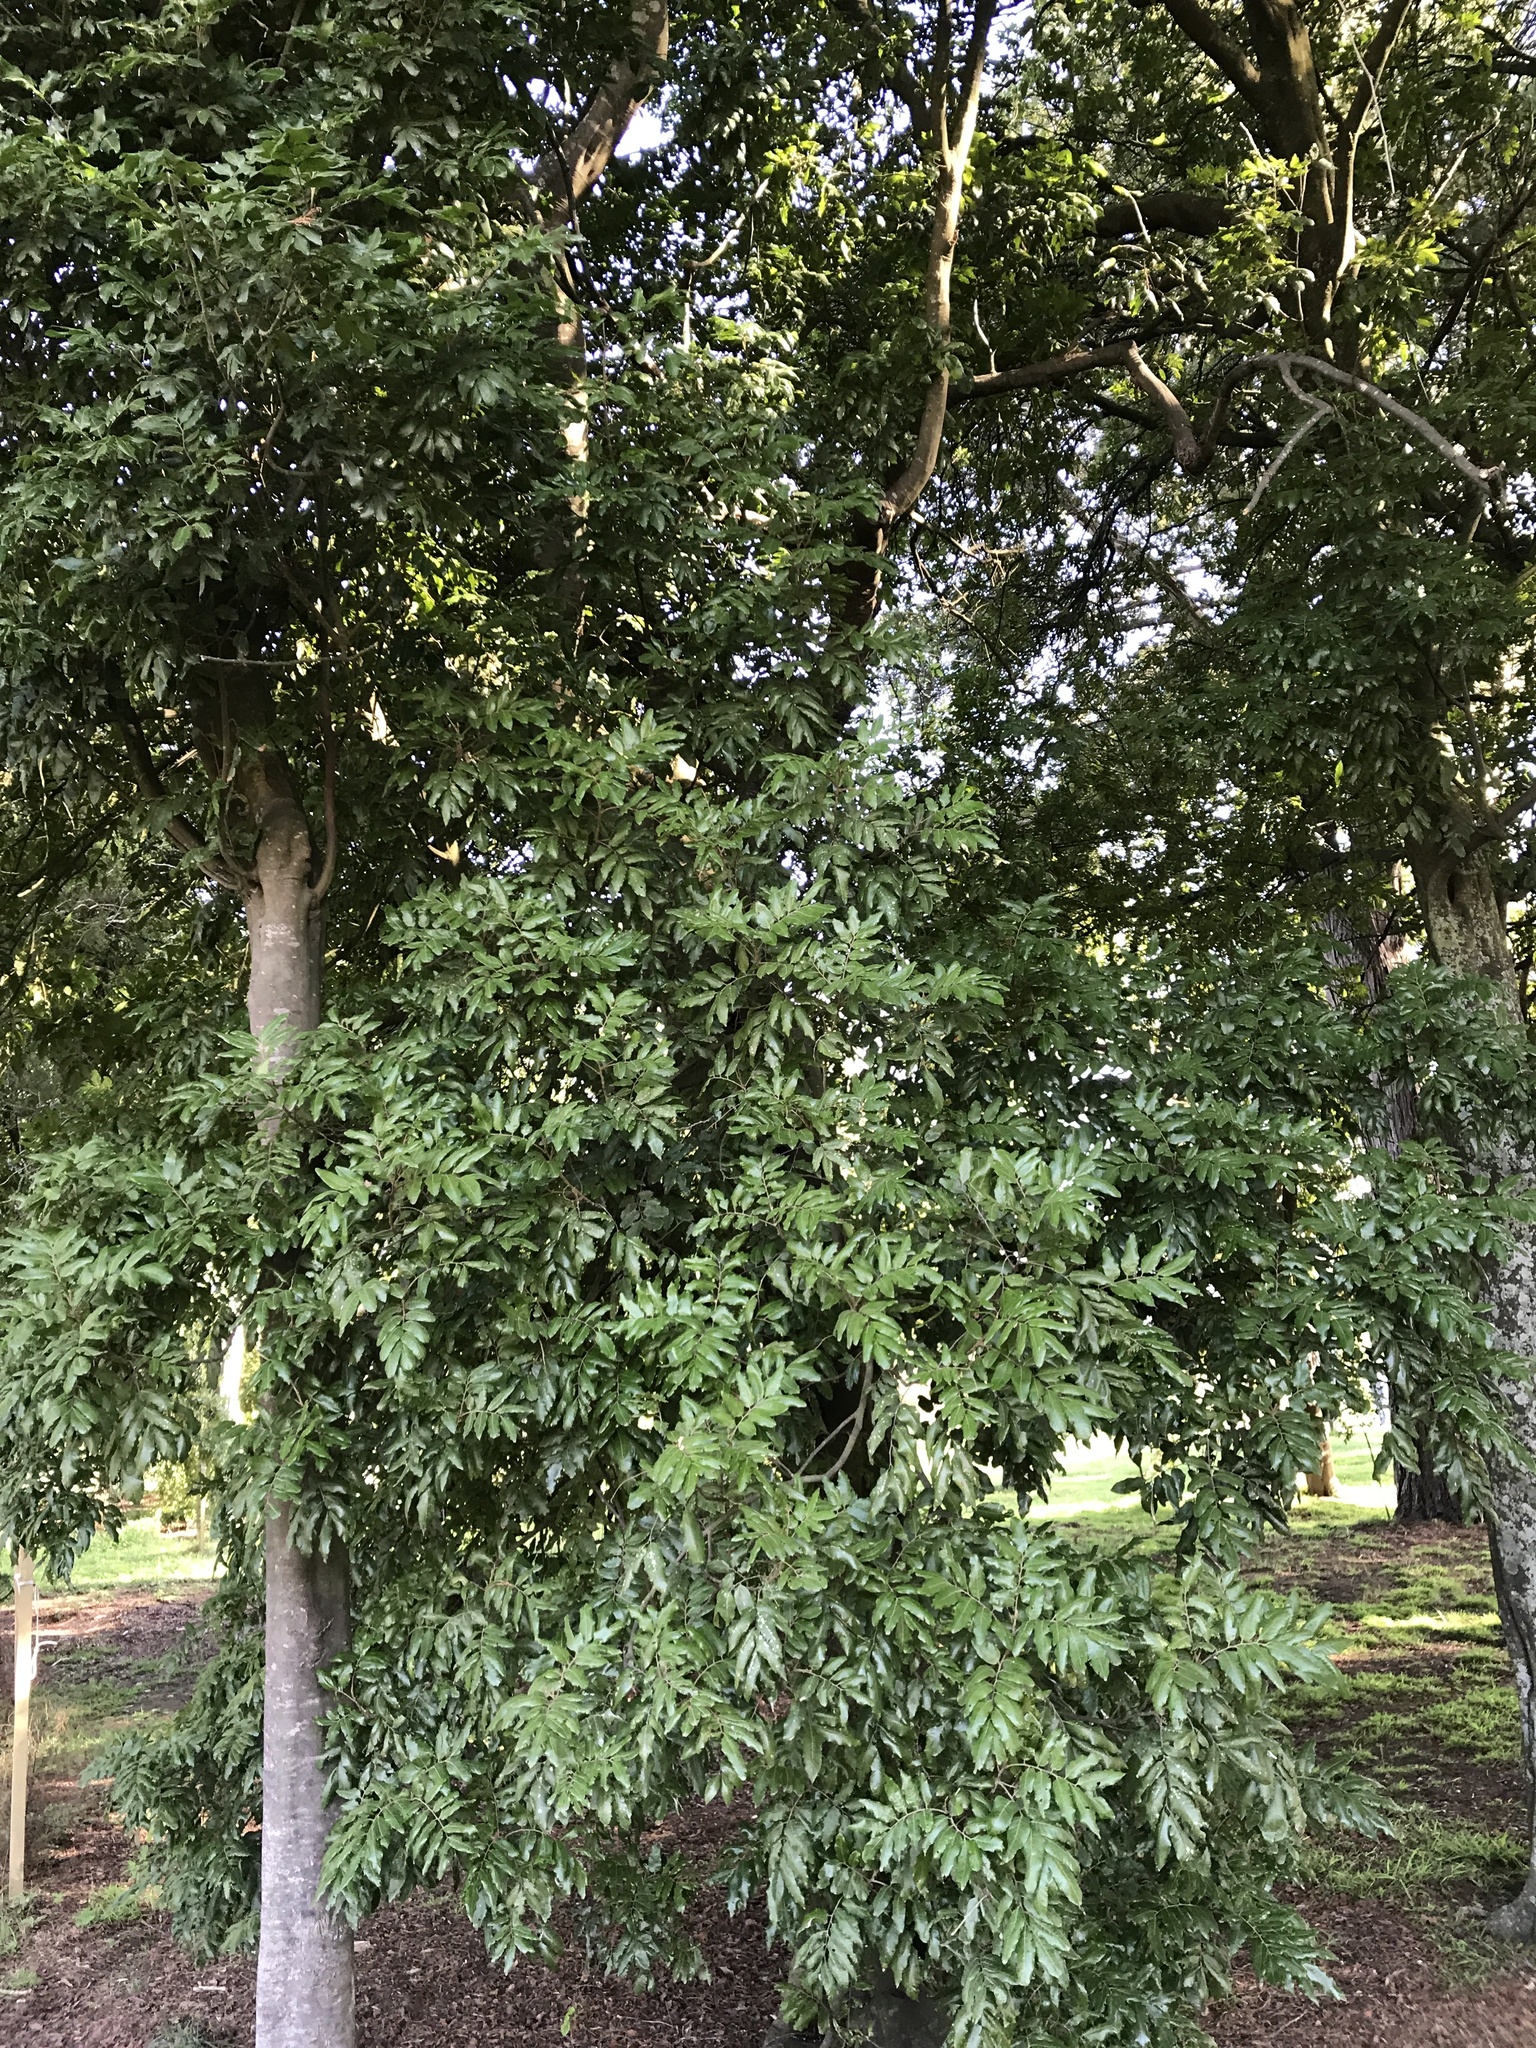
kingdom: Plantae
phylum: Tracheophyta
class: Magnoliopsida
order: Sapindales
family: Sapindaceae
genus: Alectryon
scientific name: Alectryon excelsus
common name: Three kings titoki
